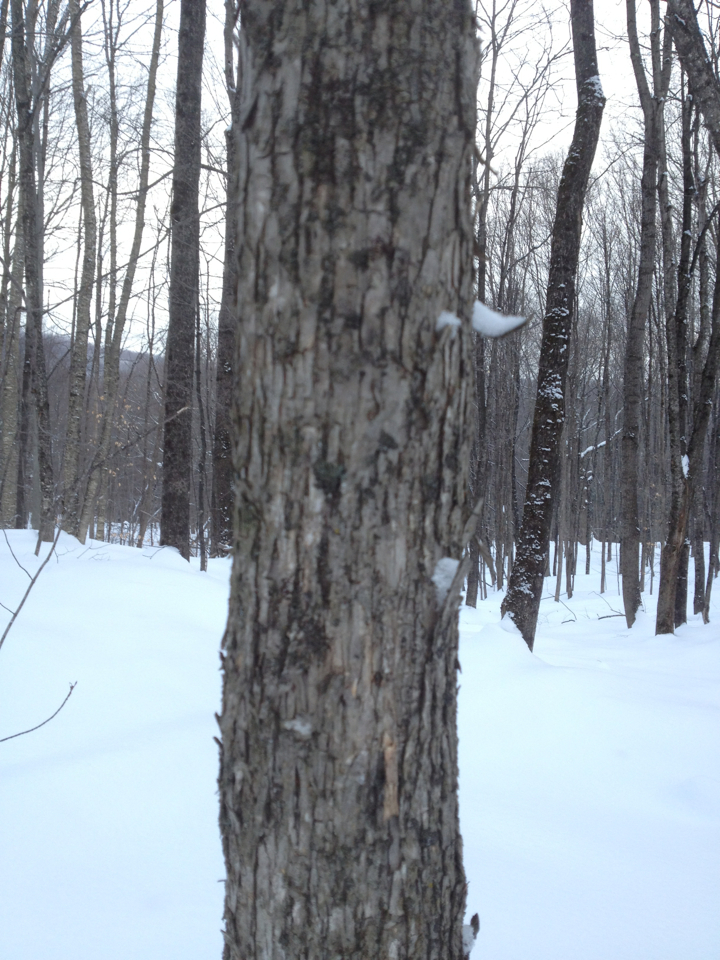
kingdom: Plantae
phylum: Tracheophyta
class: Magnoliopsida
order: Fagales
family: Betulaceae
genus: Ostrya
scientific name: Ostrya virginiana
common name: Ironwood
